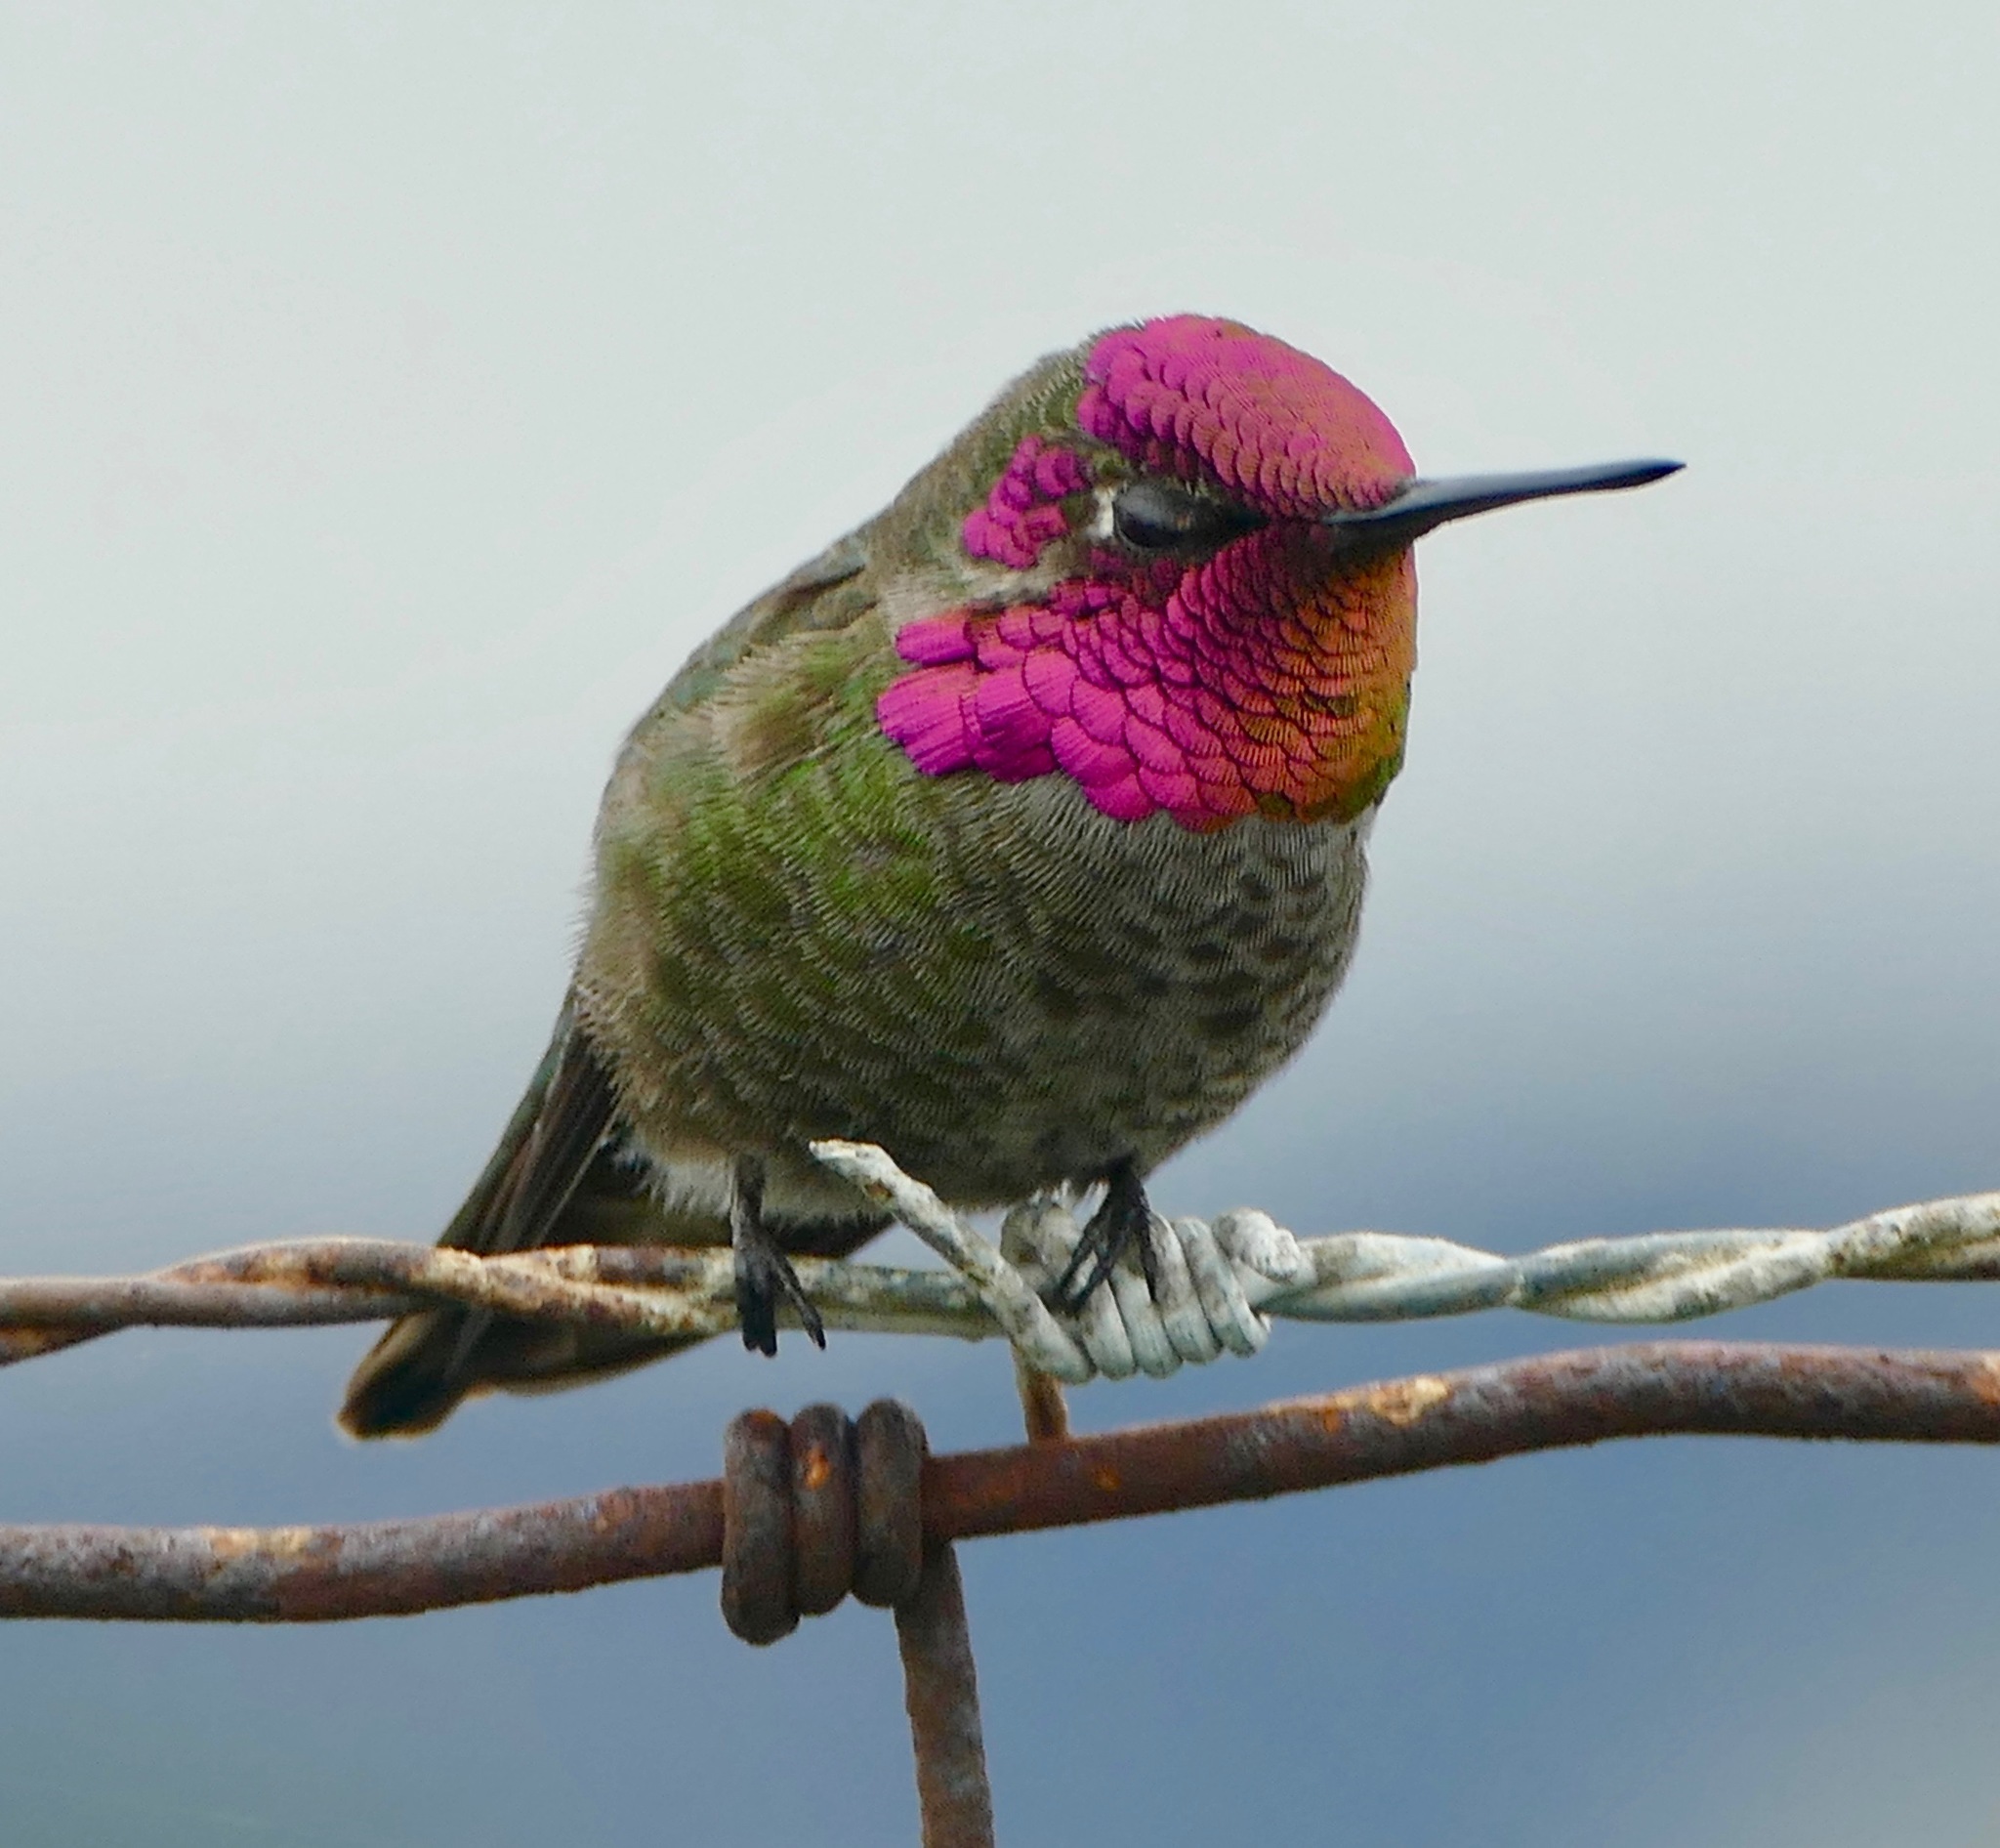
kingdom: Animalia
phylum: Chordata
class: Aves
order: Apodiformes
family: Trochilidae
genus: Calypte
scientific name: Calypte anna
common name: Anna's hummingbird
